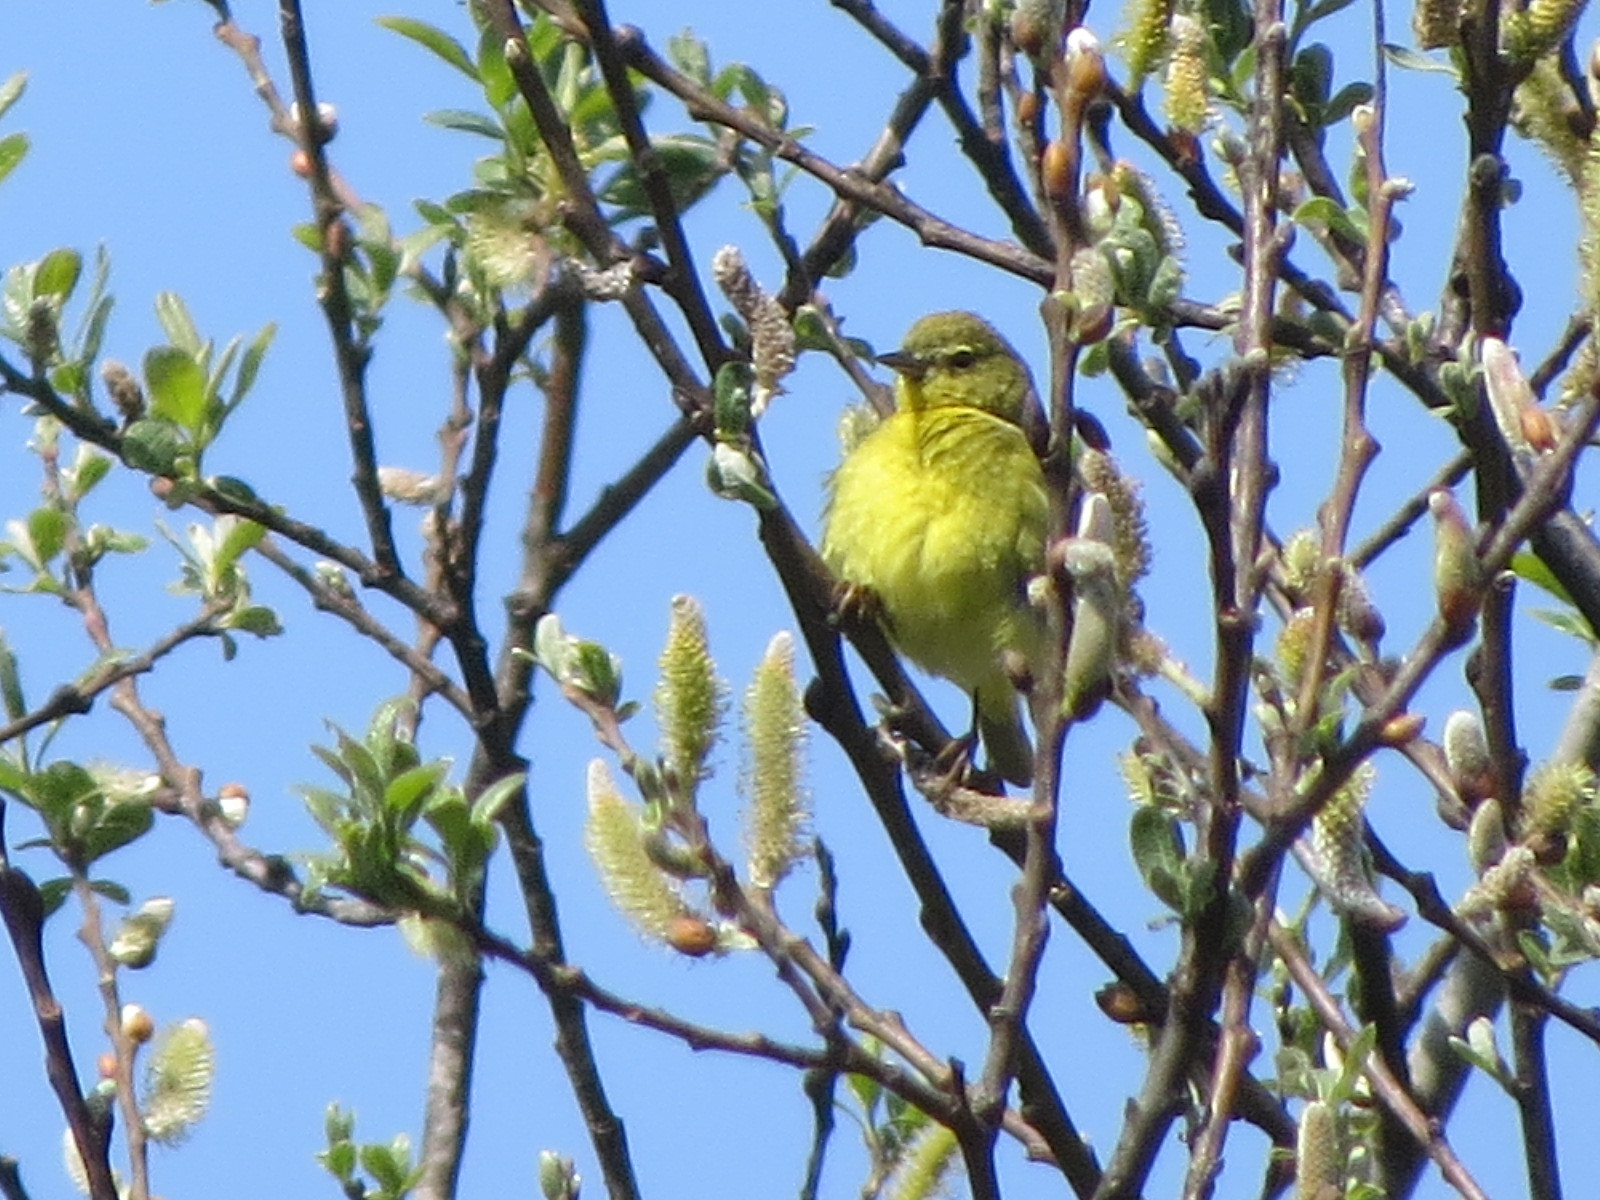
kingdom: Animalia
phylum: Chordata
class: Aves
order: Passeriformes
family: Parulidae
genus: Leiothlypis
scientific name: Leiothlypis celata
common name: Orange-crowned warbler
